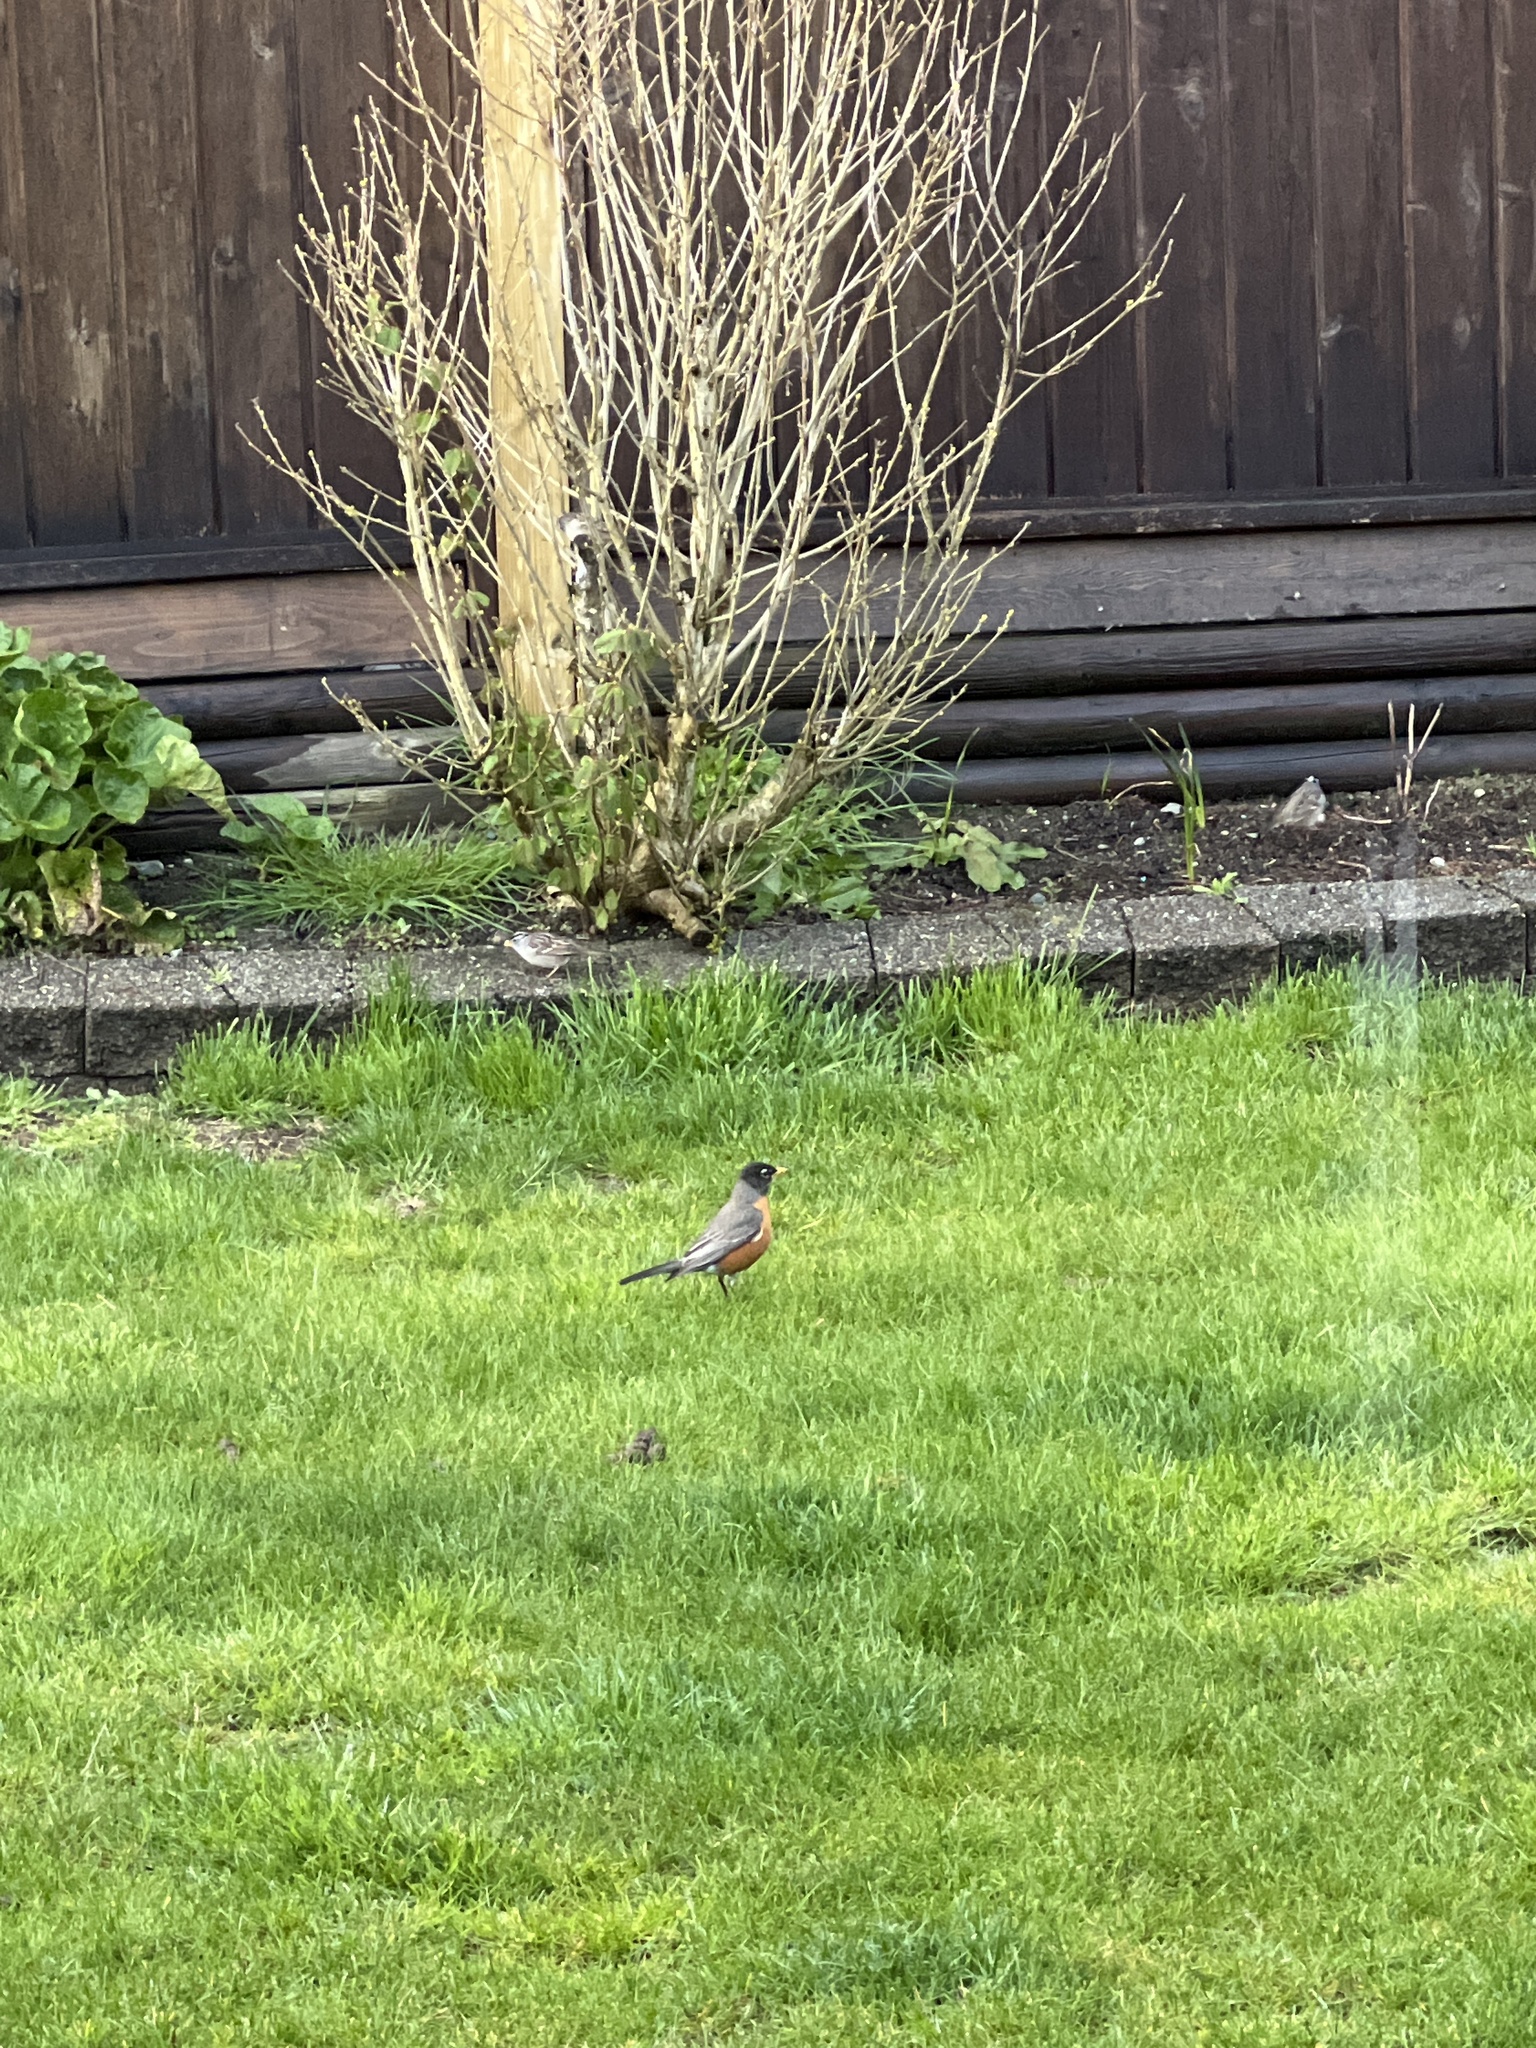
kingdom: Animalia
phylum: Chordata
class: Aves
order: Passeriformes
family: Turdidae
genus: Turdus
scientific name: Turdus migratorius
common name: American robin
